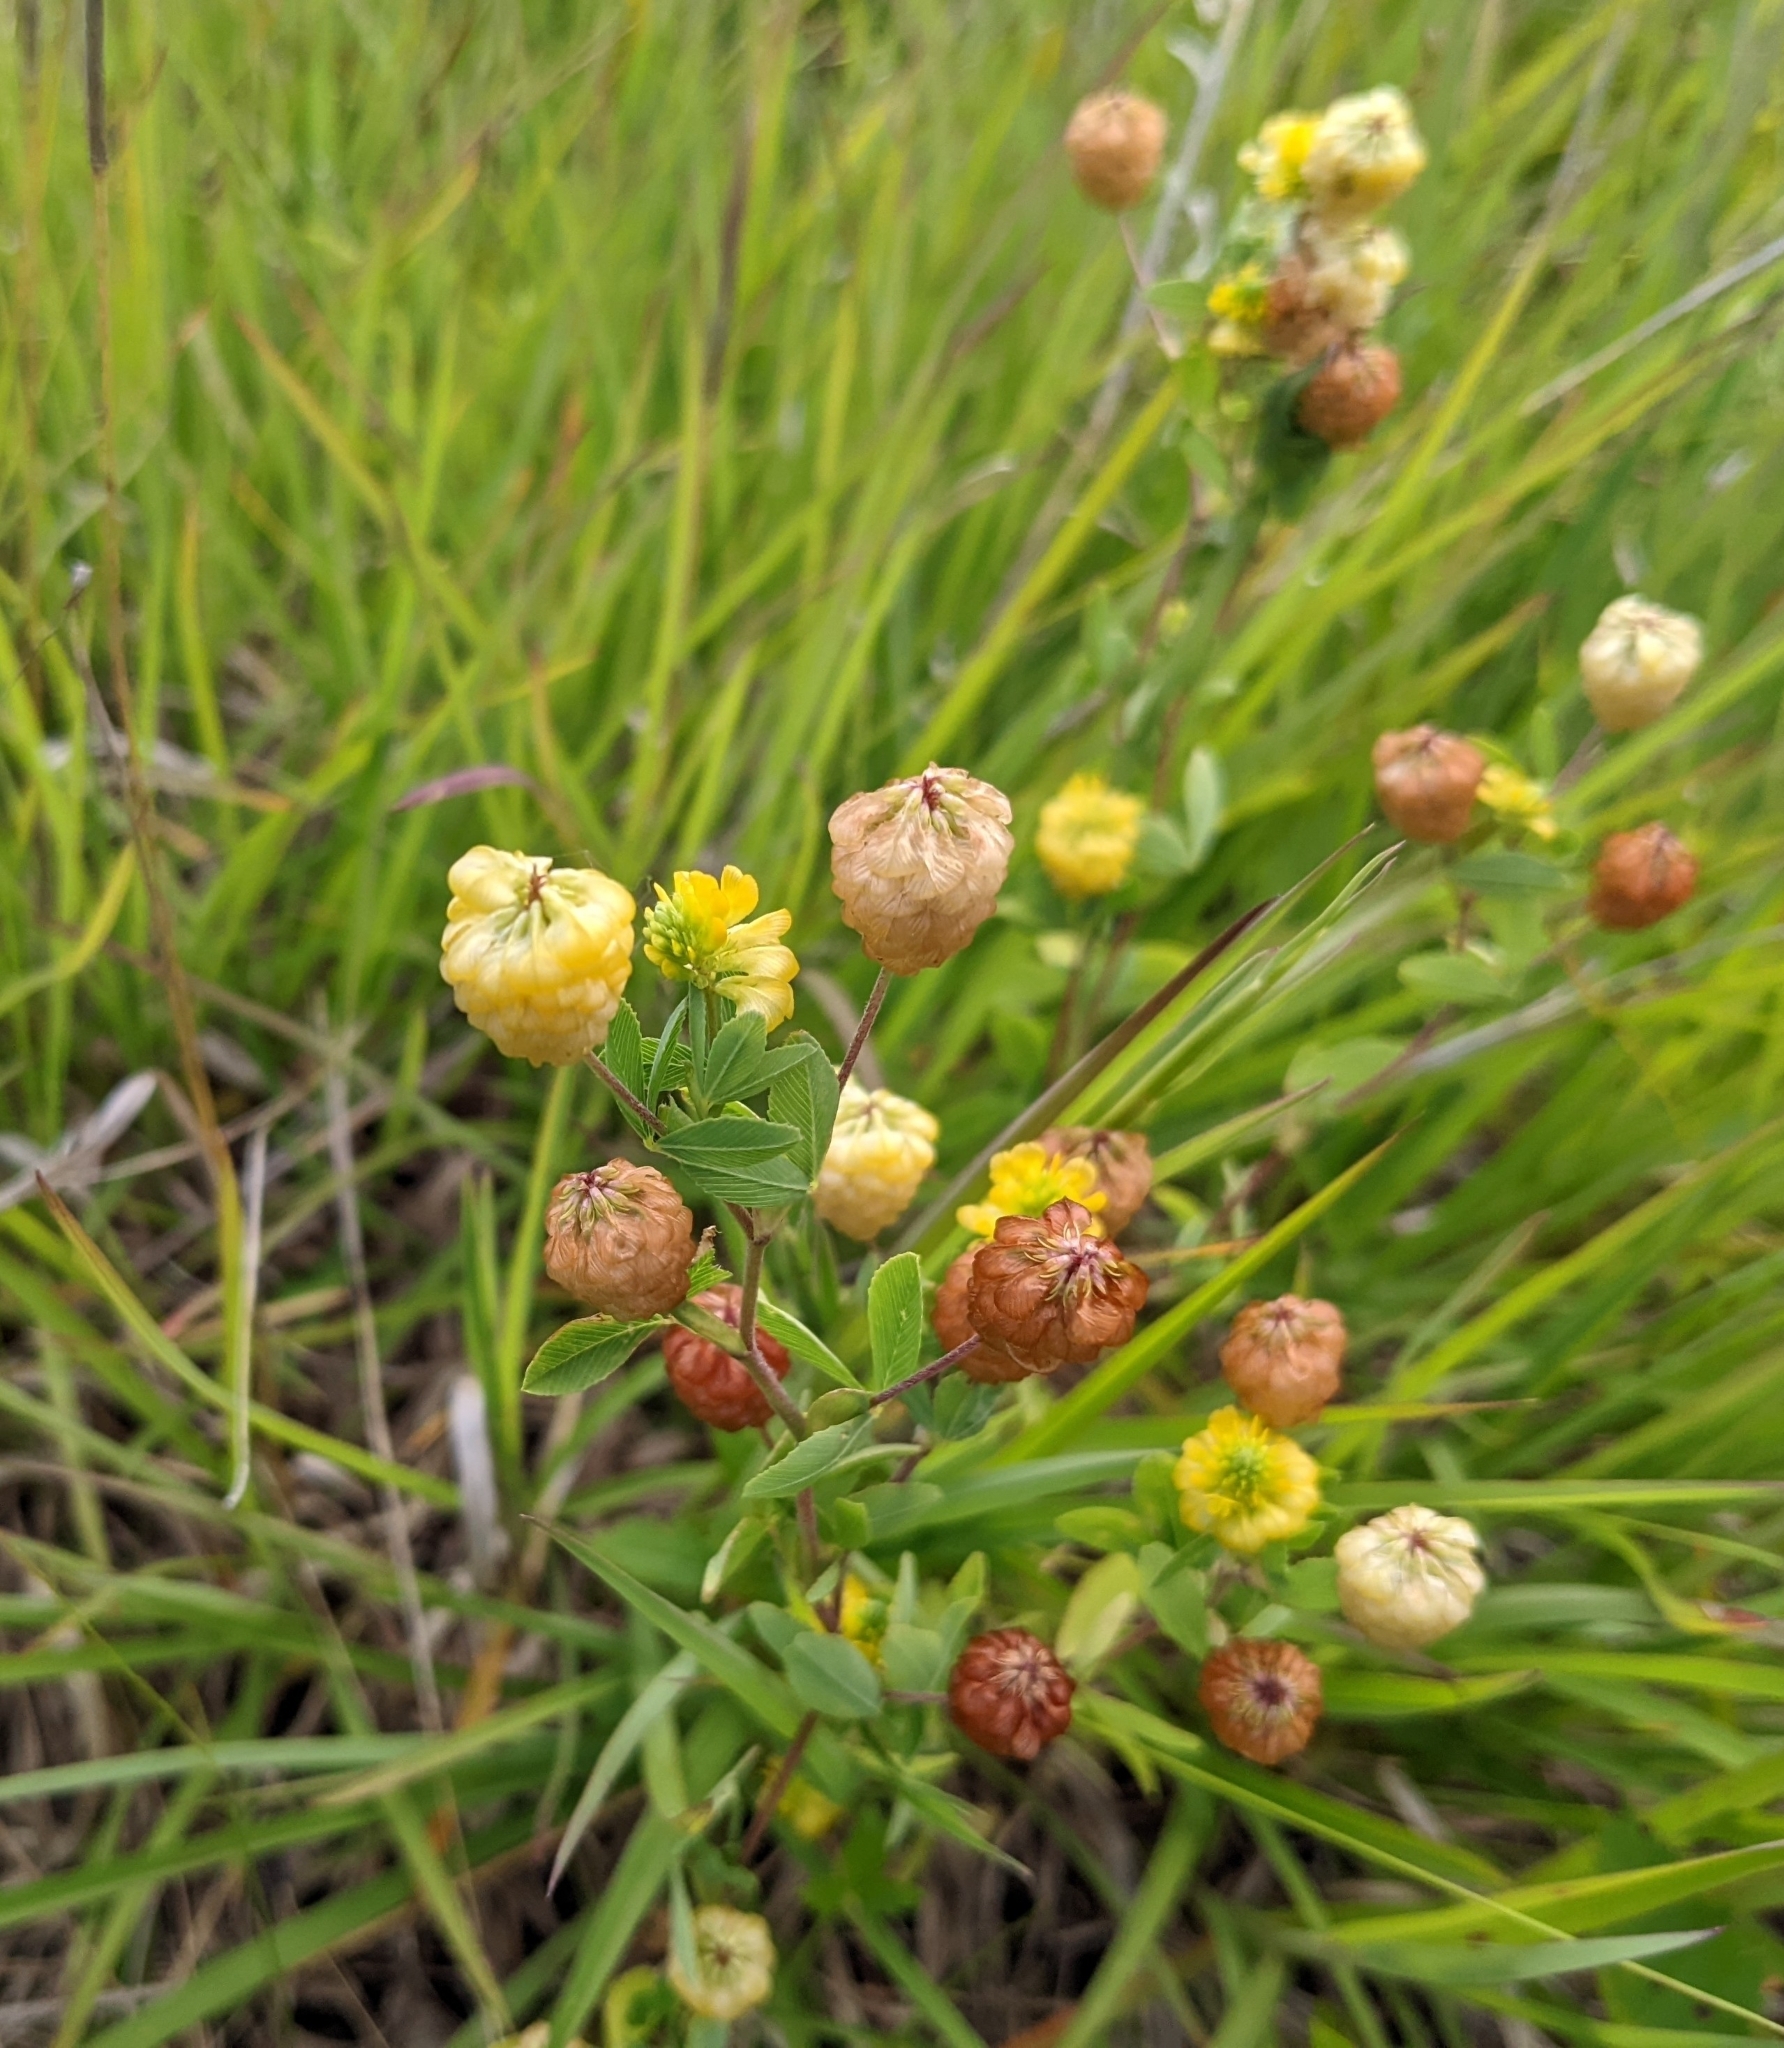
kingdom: Plantae
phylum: Tracheophyta
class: Magnoliopsida
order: Fabales
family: Fabaceae
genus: Trifolium
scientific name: Trifolium aureum
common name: Golden clover
